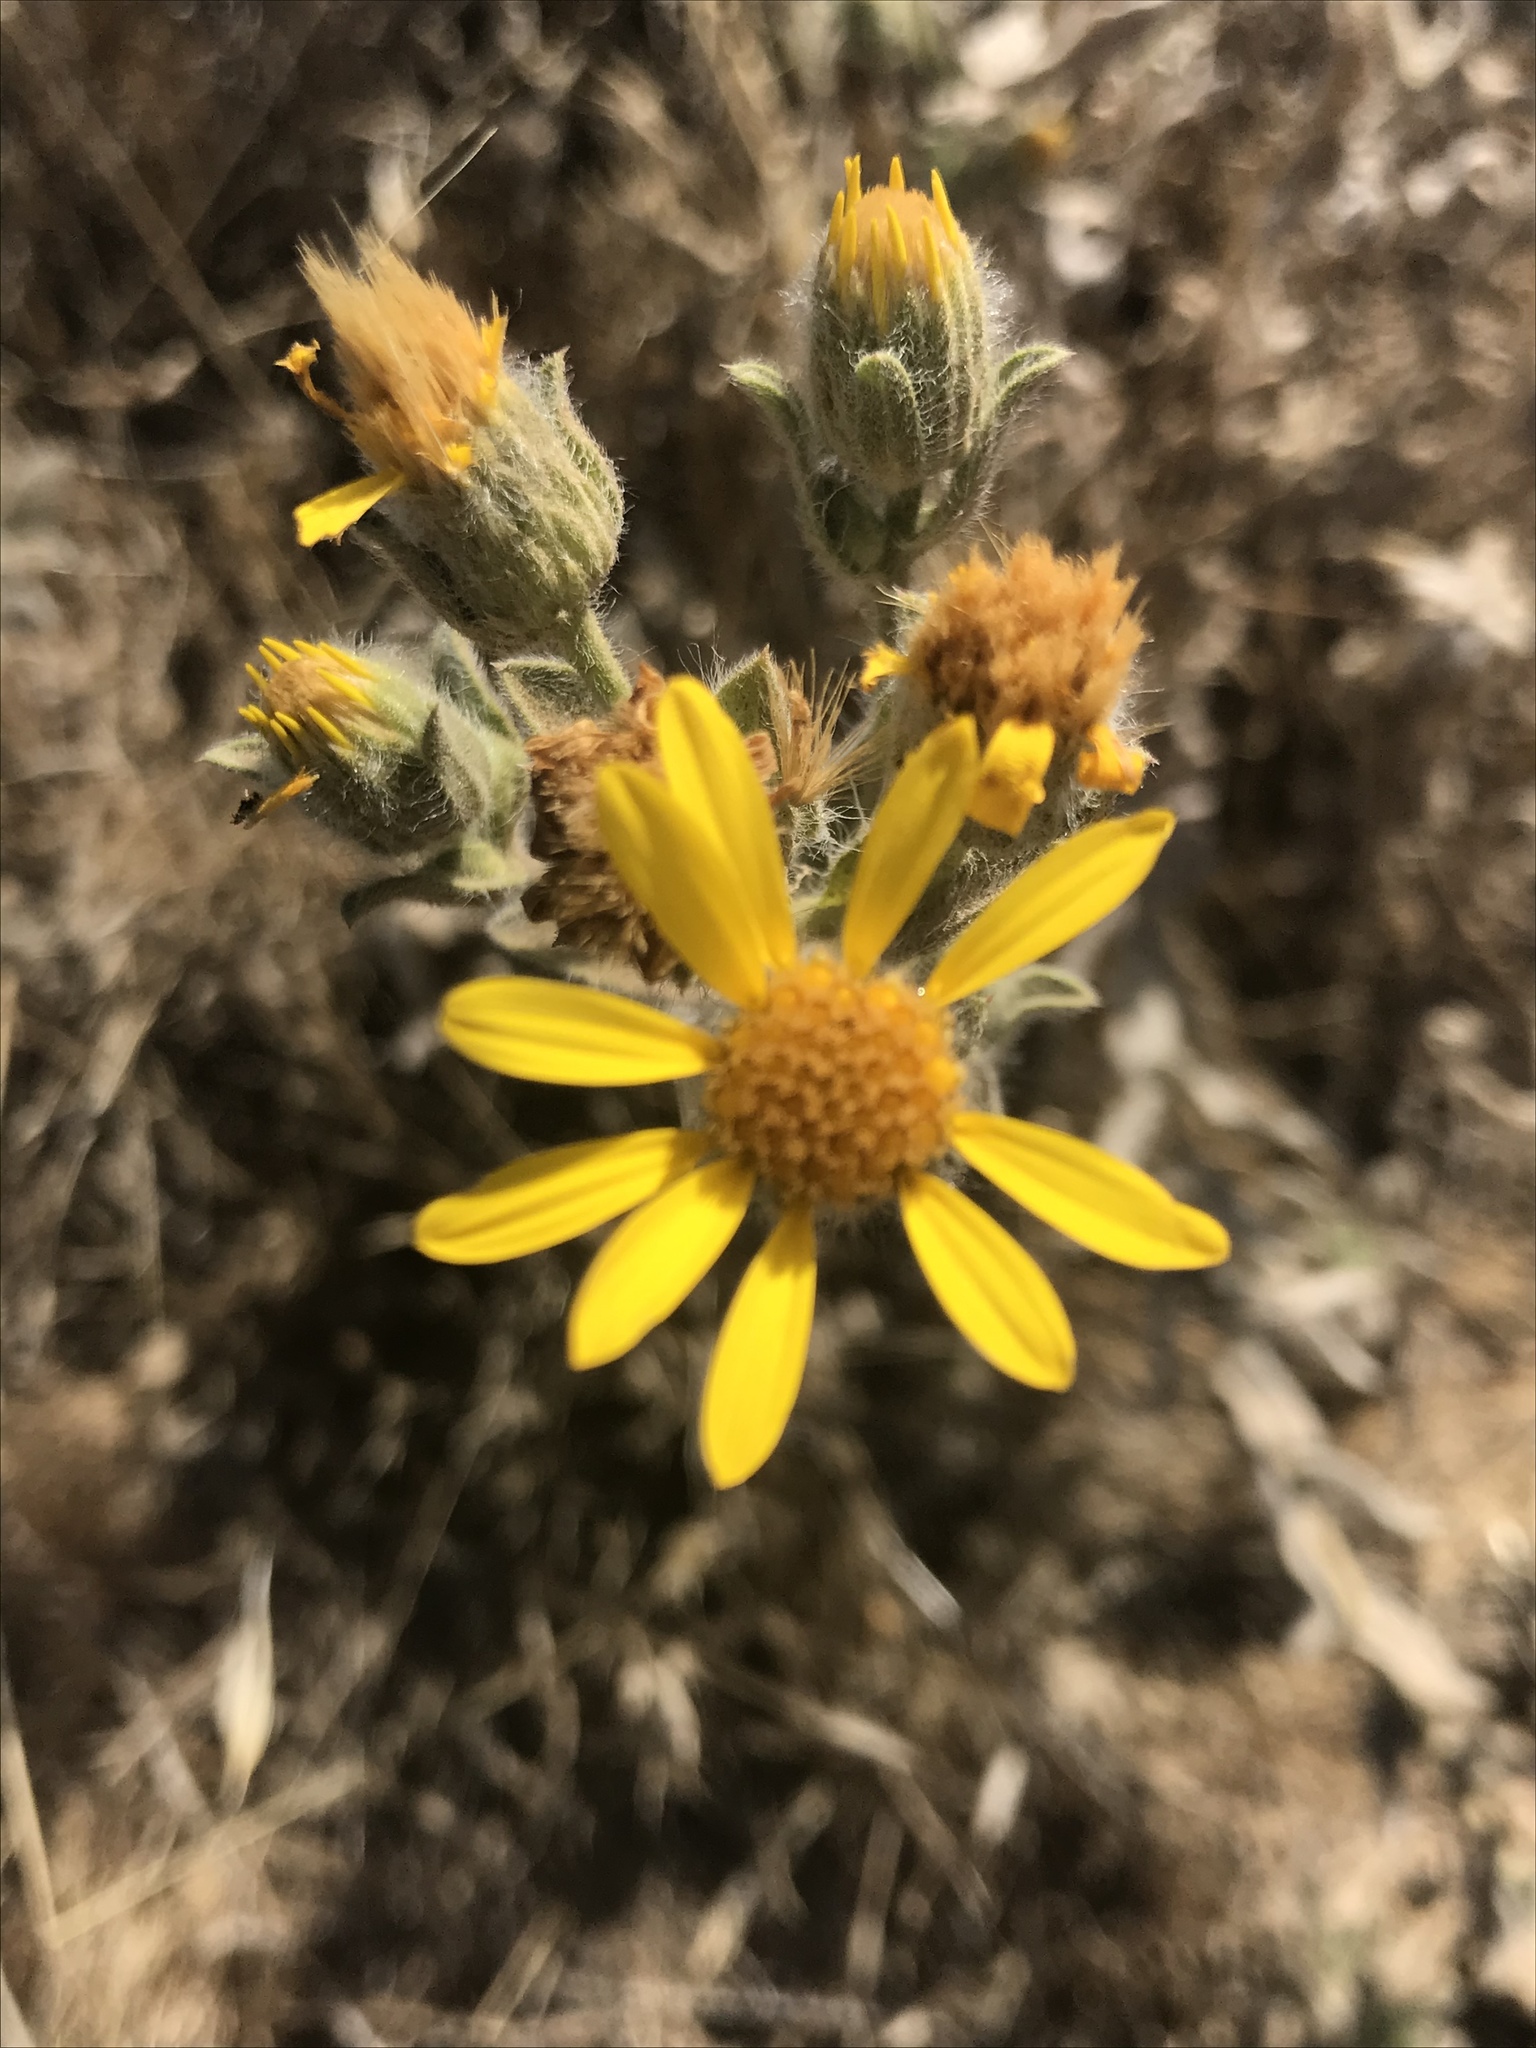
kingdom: Plantae
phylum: Tracheophyta
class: Magnoliopsida
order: Asterales
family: Asteraceae
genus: Heterotheca
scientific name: Heterotheca sessiliflora
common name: Sessile-flower golden-aster
